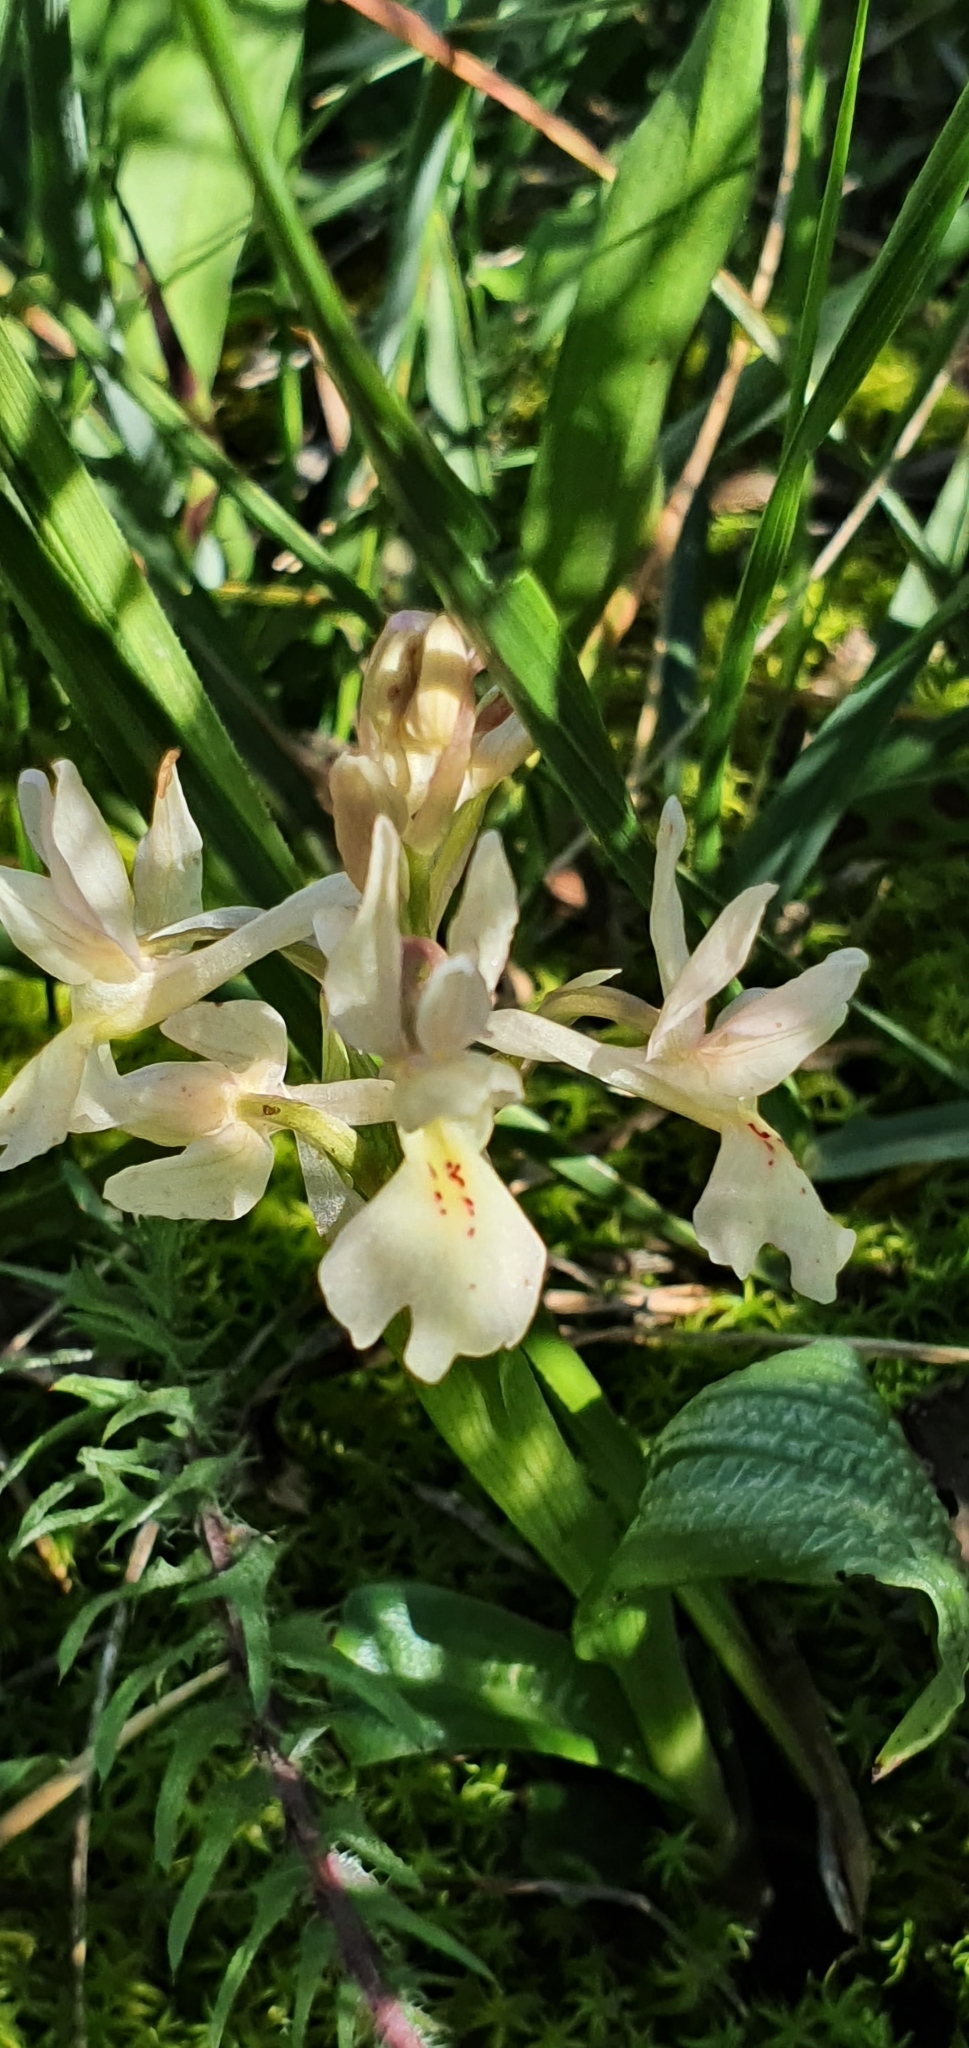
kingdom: Plantae
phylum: Tracheophyta
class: Liliopsida
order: Asparagales
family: Orchidaceae
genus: Orchis
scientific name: Orchis laeta
